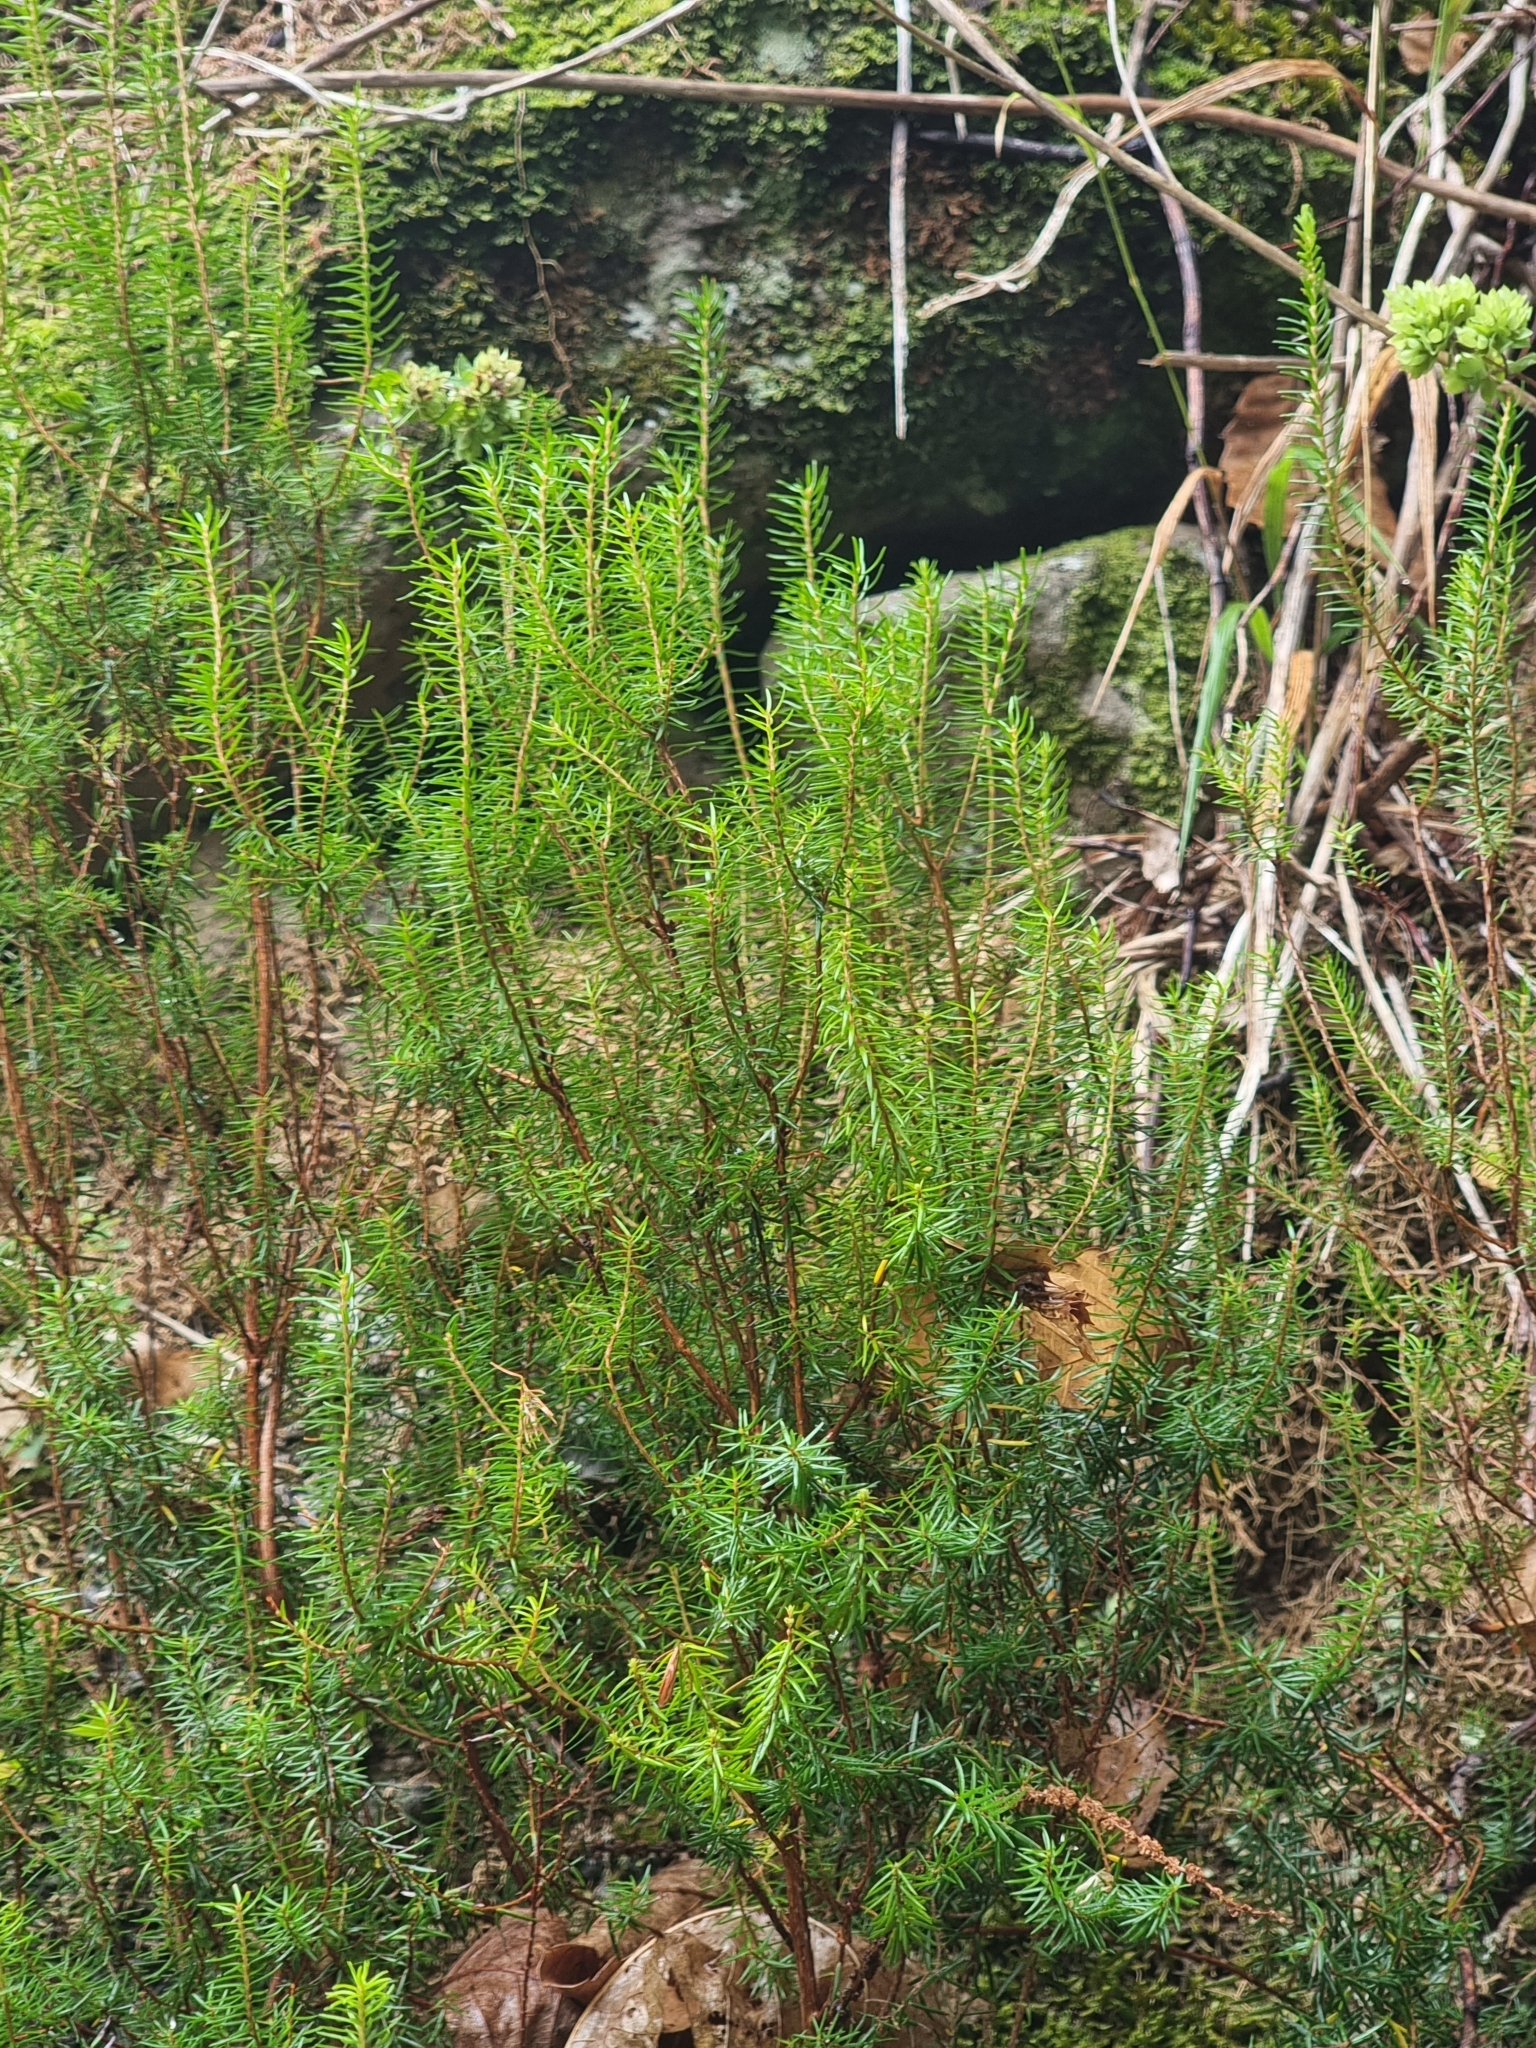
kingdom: Plantae
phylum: Tracheophyta
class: Magnoliopsida
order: Ericales
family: Ericaceae
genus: Erica
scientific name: Erica platycodon
